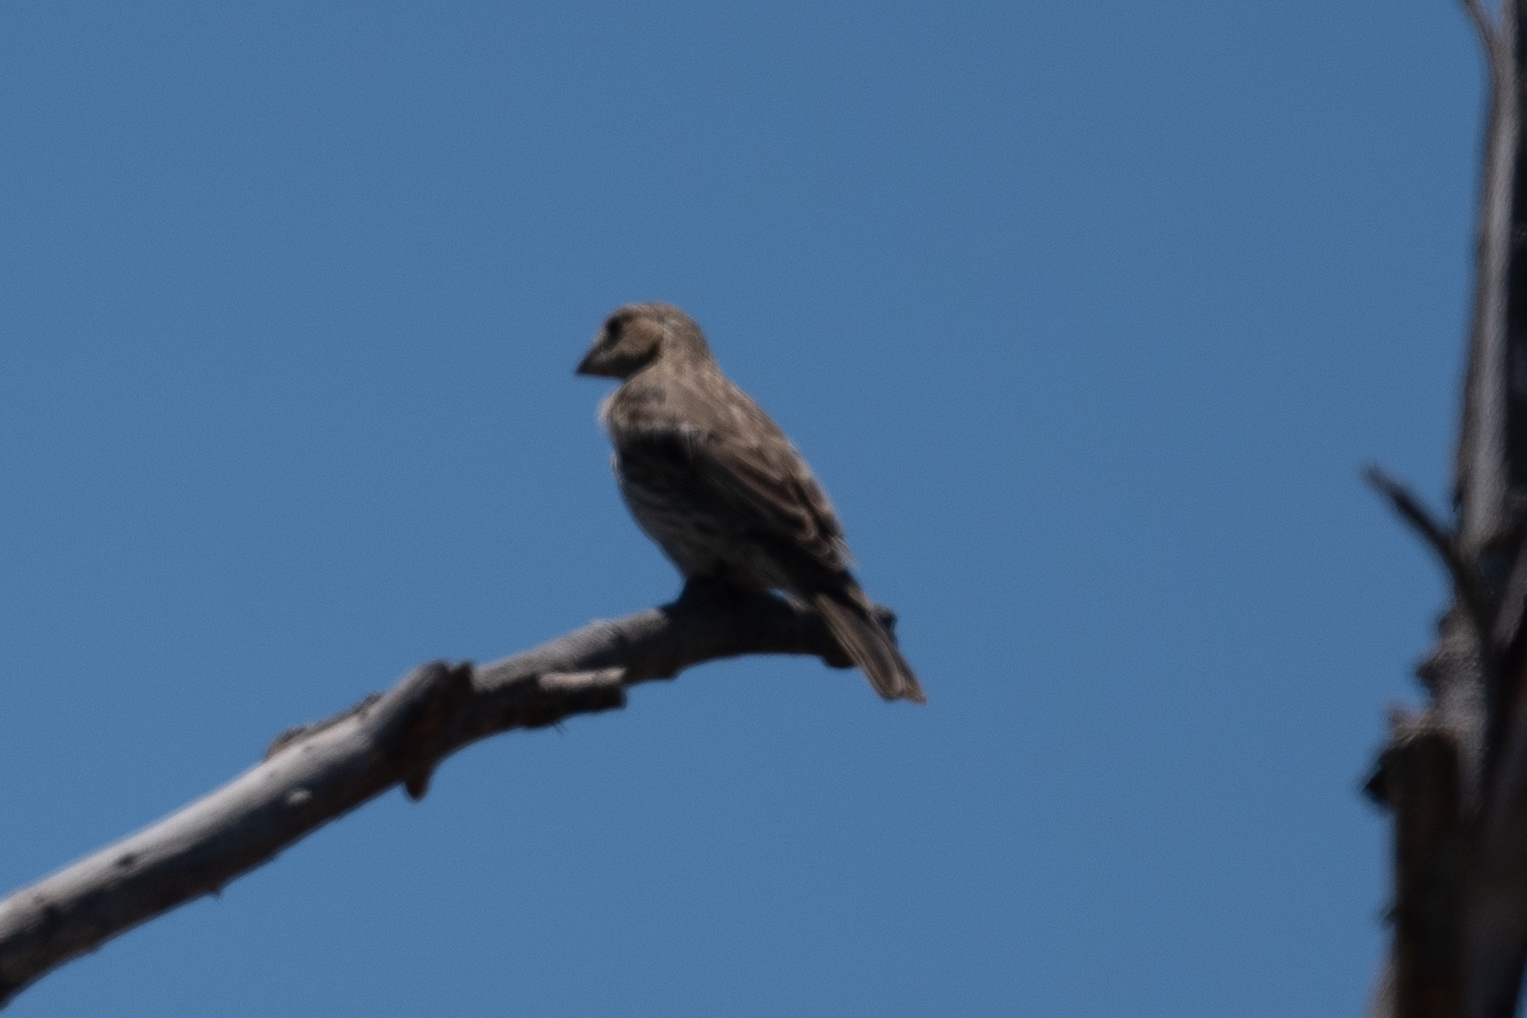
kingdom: Animalia
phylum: Chordata
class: Aves
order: Passeriformes
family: Fringillidae
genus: Haemorhous
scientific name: Haemorhous mexicanus
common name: House finch
